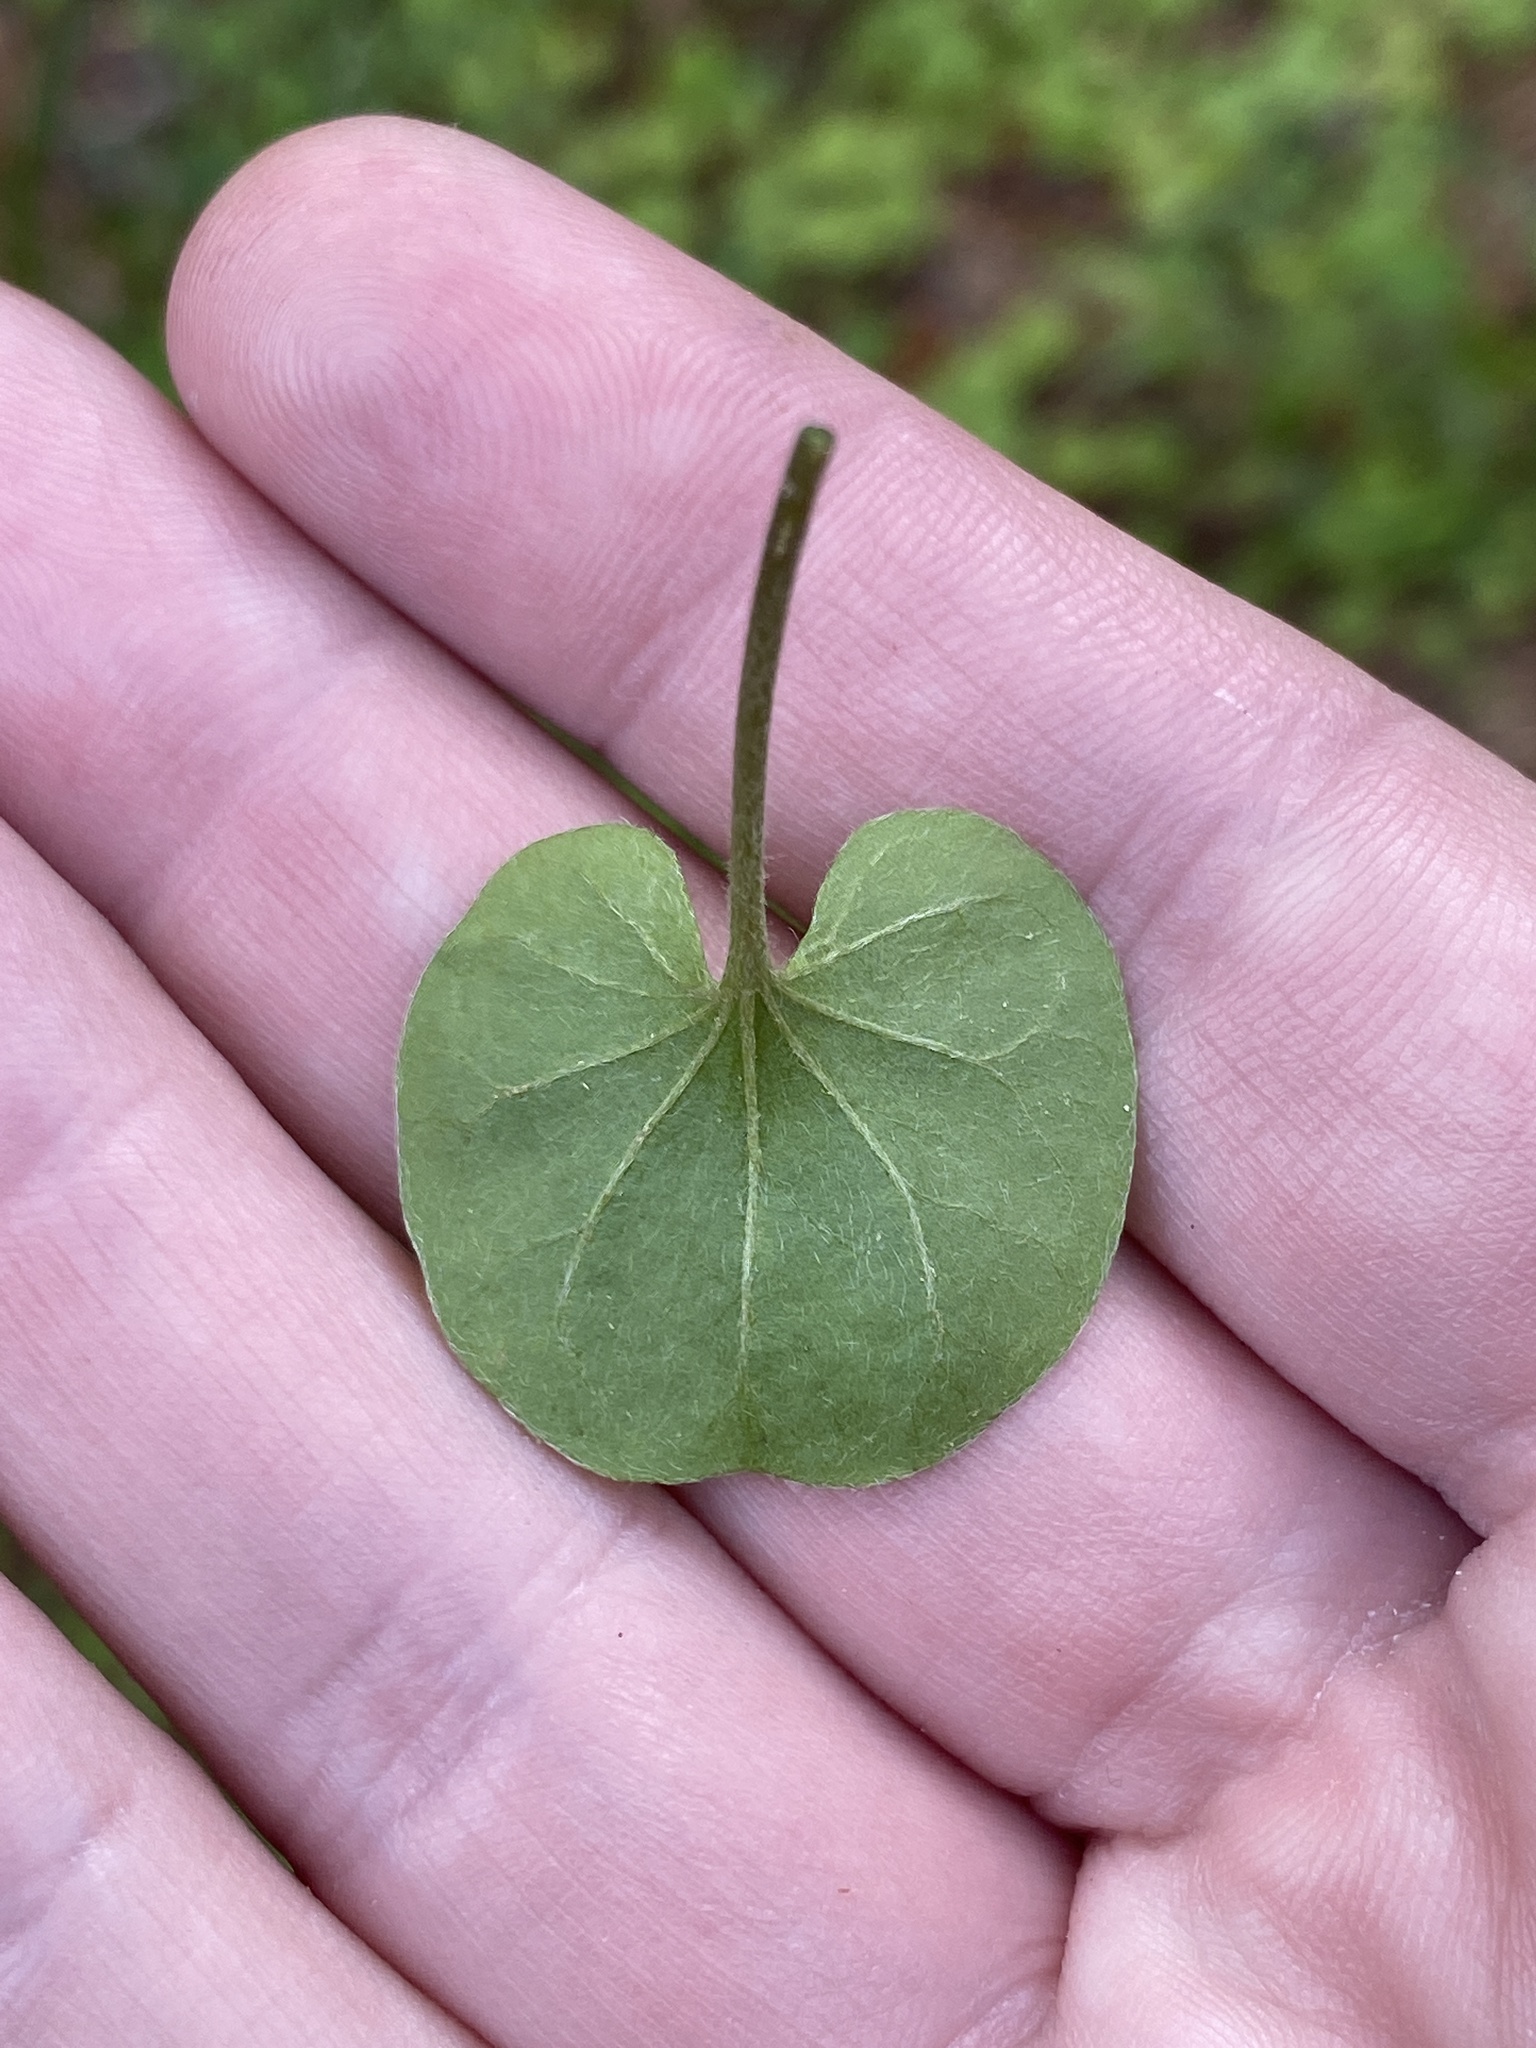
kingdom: Plantae
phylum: Tracheophyta
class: Magnoliopsida
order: Solanales
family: Convolvulaceae
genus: Dichondra
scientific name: Dichondra carolinensis
